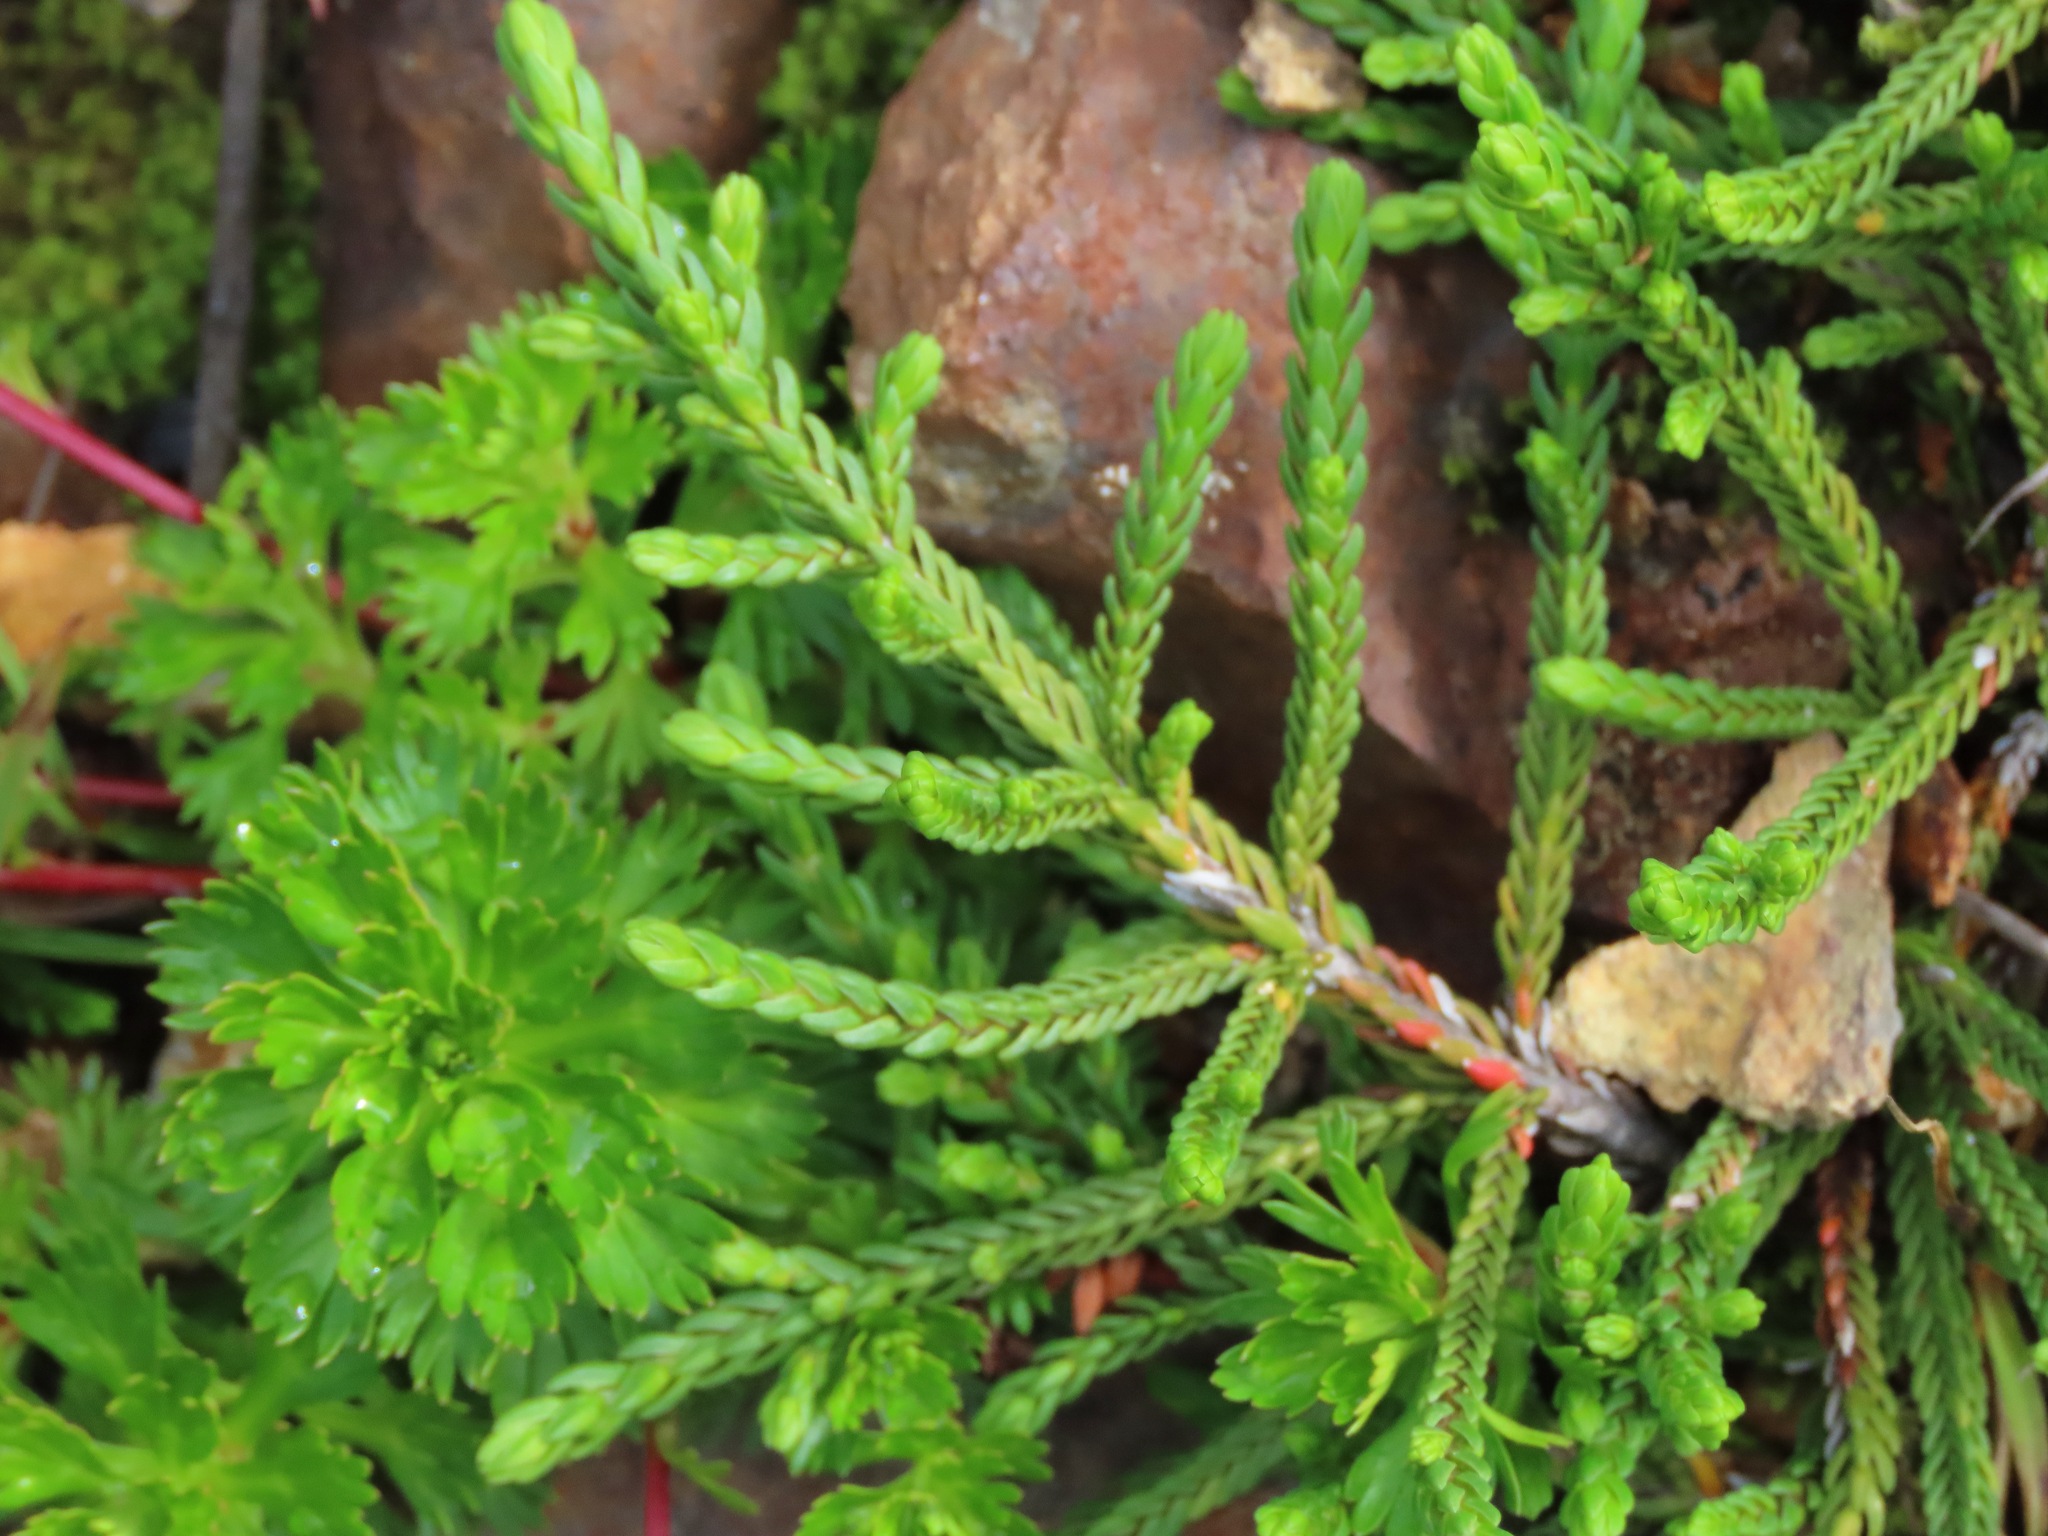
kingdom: Plantae
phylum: Tracheophyta
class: Magnoliopsida
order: Ericales
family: Ericaceae
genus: Cassiope
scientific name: Cassiope mertensiana
